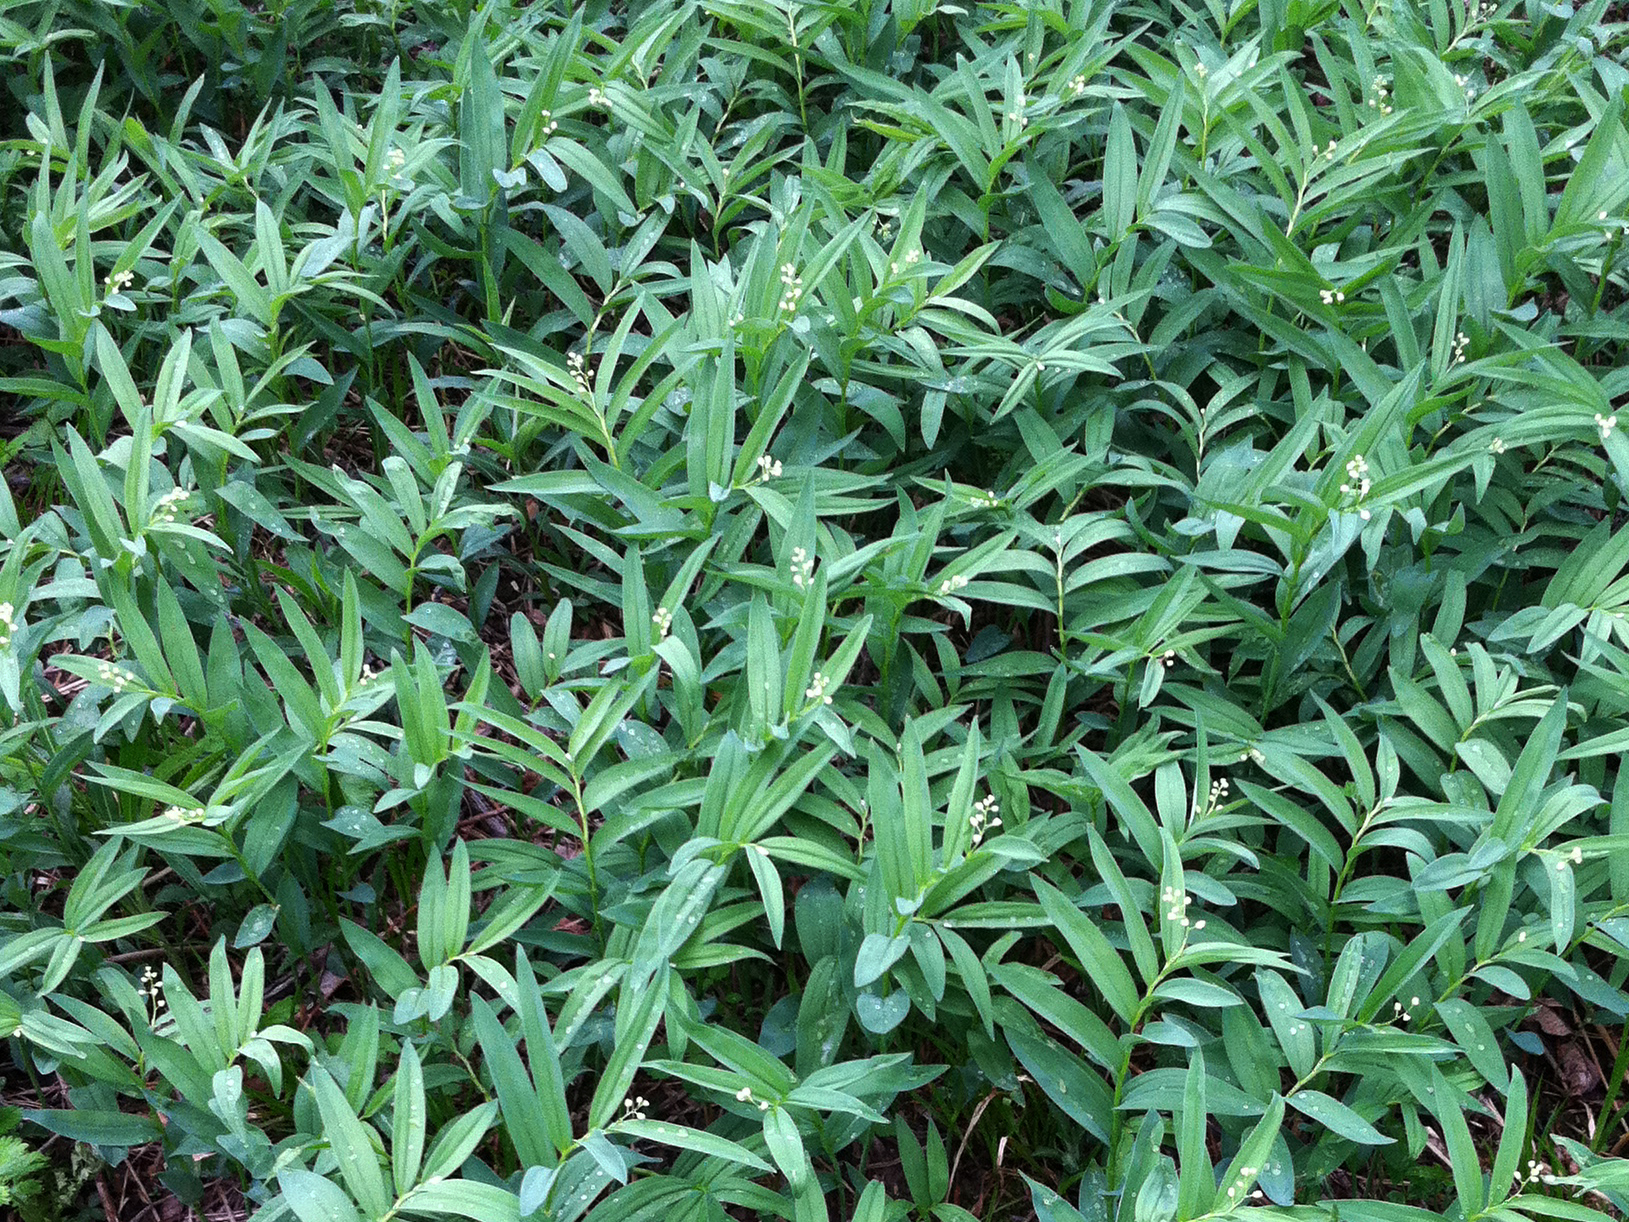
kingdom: Plantae
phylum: Tracheophyta
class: Liliopsida
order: Asparagales
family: Asparagaceae
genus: Maianthemum
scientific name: Maianthemum stellatum
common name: Little false solomon's seal
